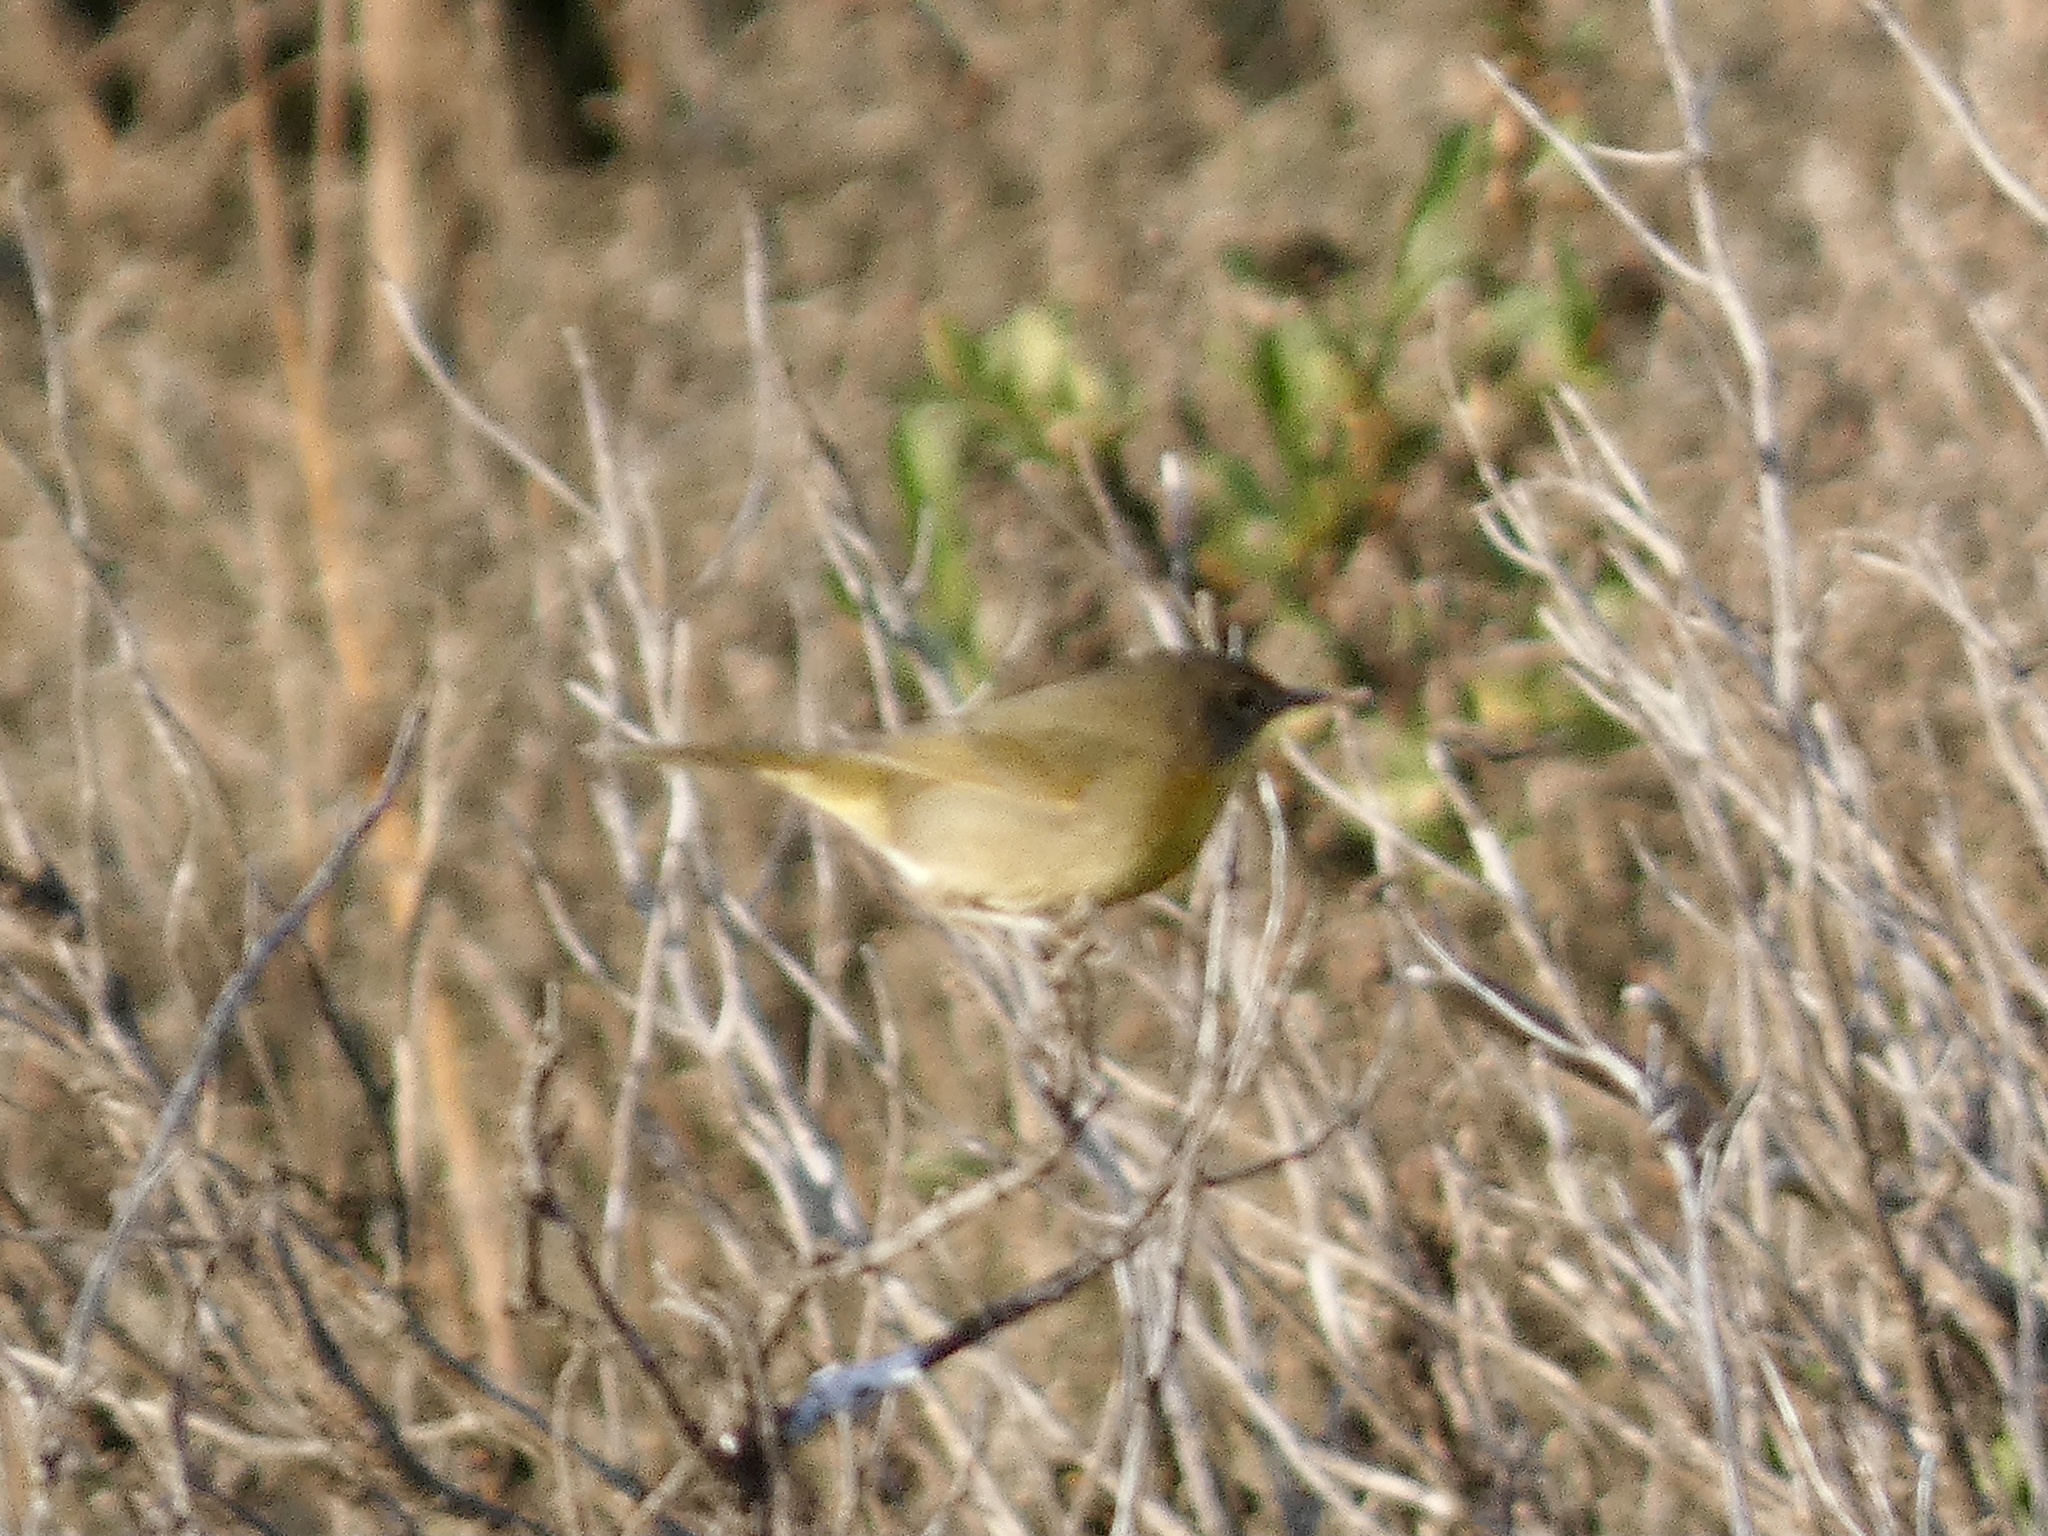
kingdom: Animalia
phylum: Chordata
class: Aves
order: Passeriformes
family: Parulidae
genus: Geothlypis
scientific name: Geothlypis trichas
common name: Common yellowthroat
